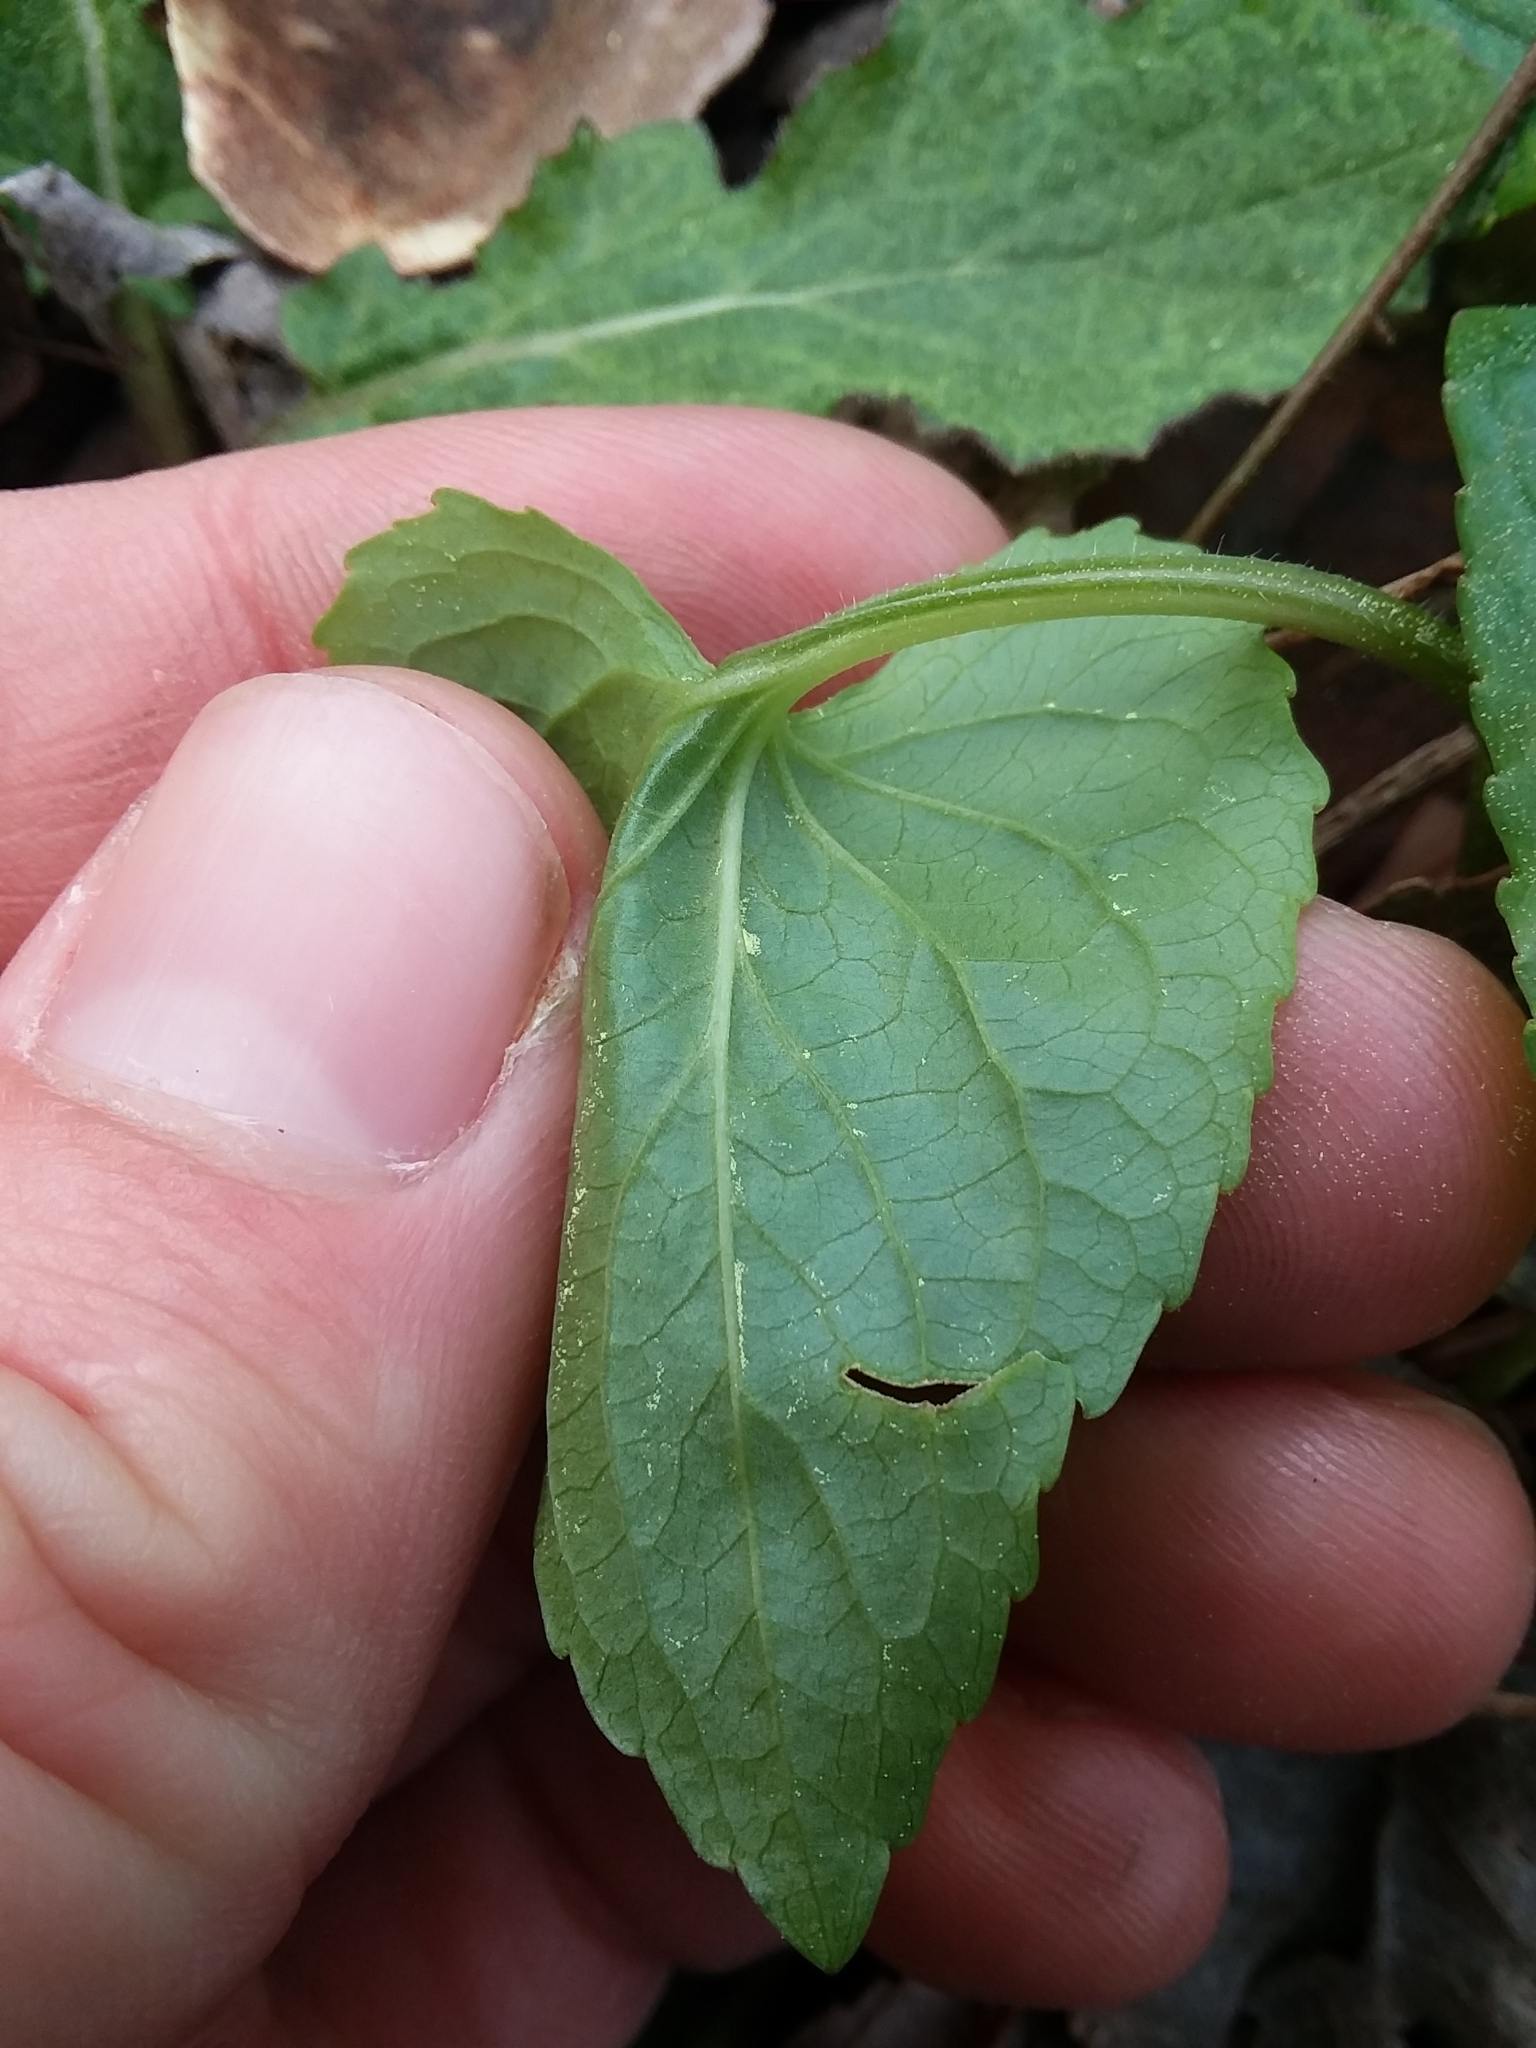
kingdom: Plantae
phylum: Tracheophyta
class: Magnoliopsida
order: Malpighiales
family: Violaceae
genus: Viola
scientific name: Viola sororia
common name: Dooryard violet
